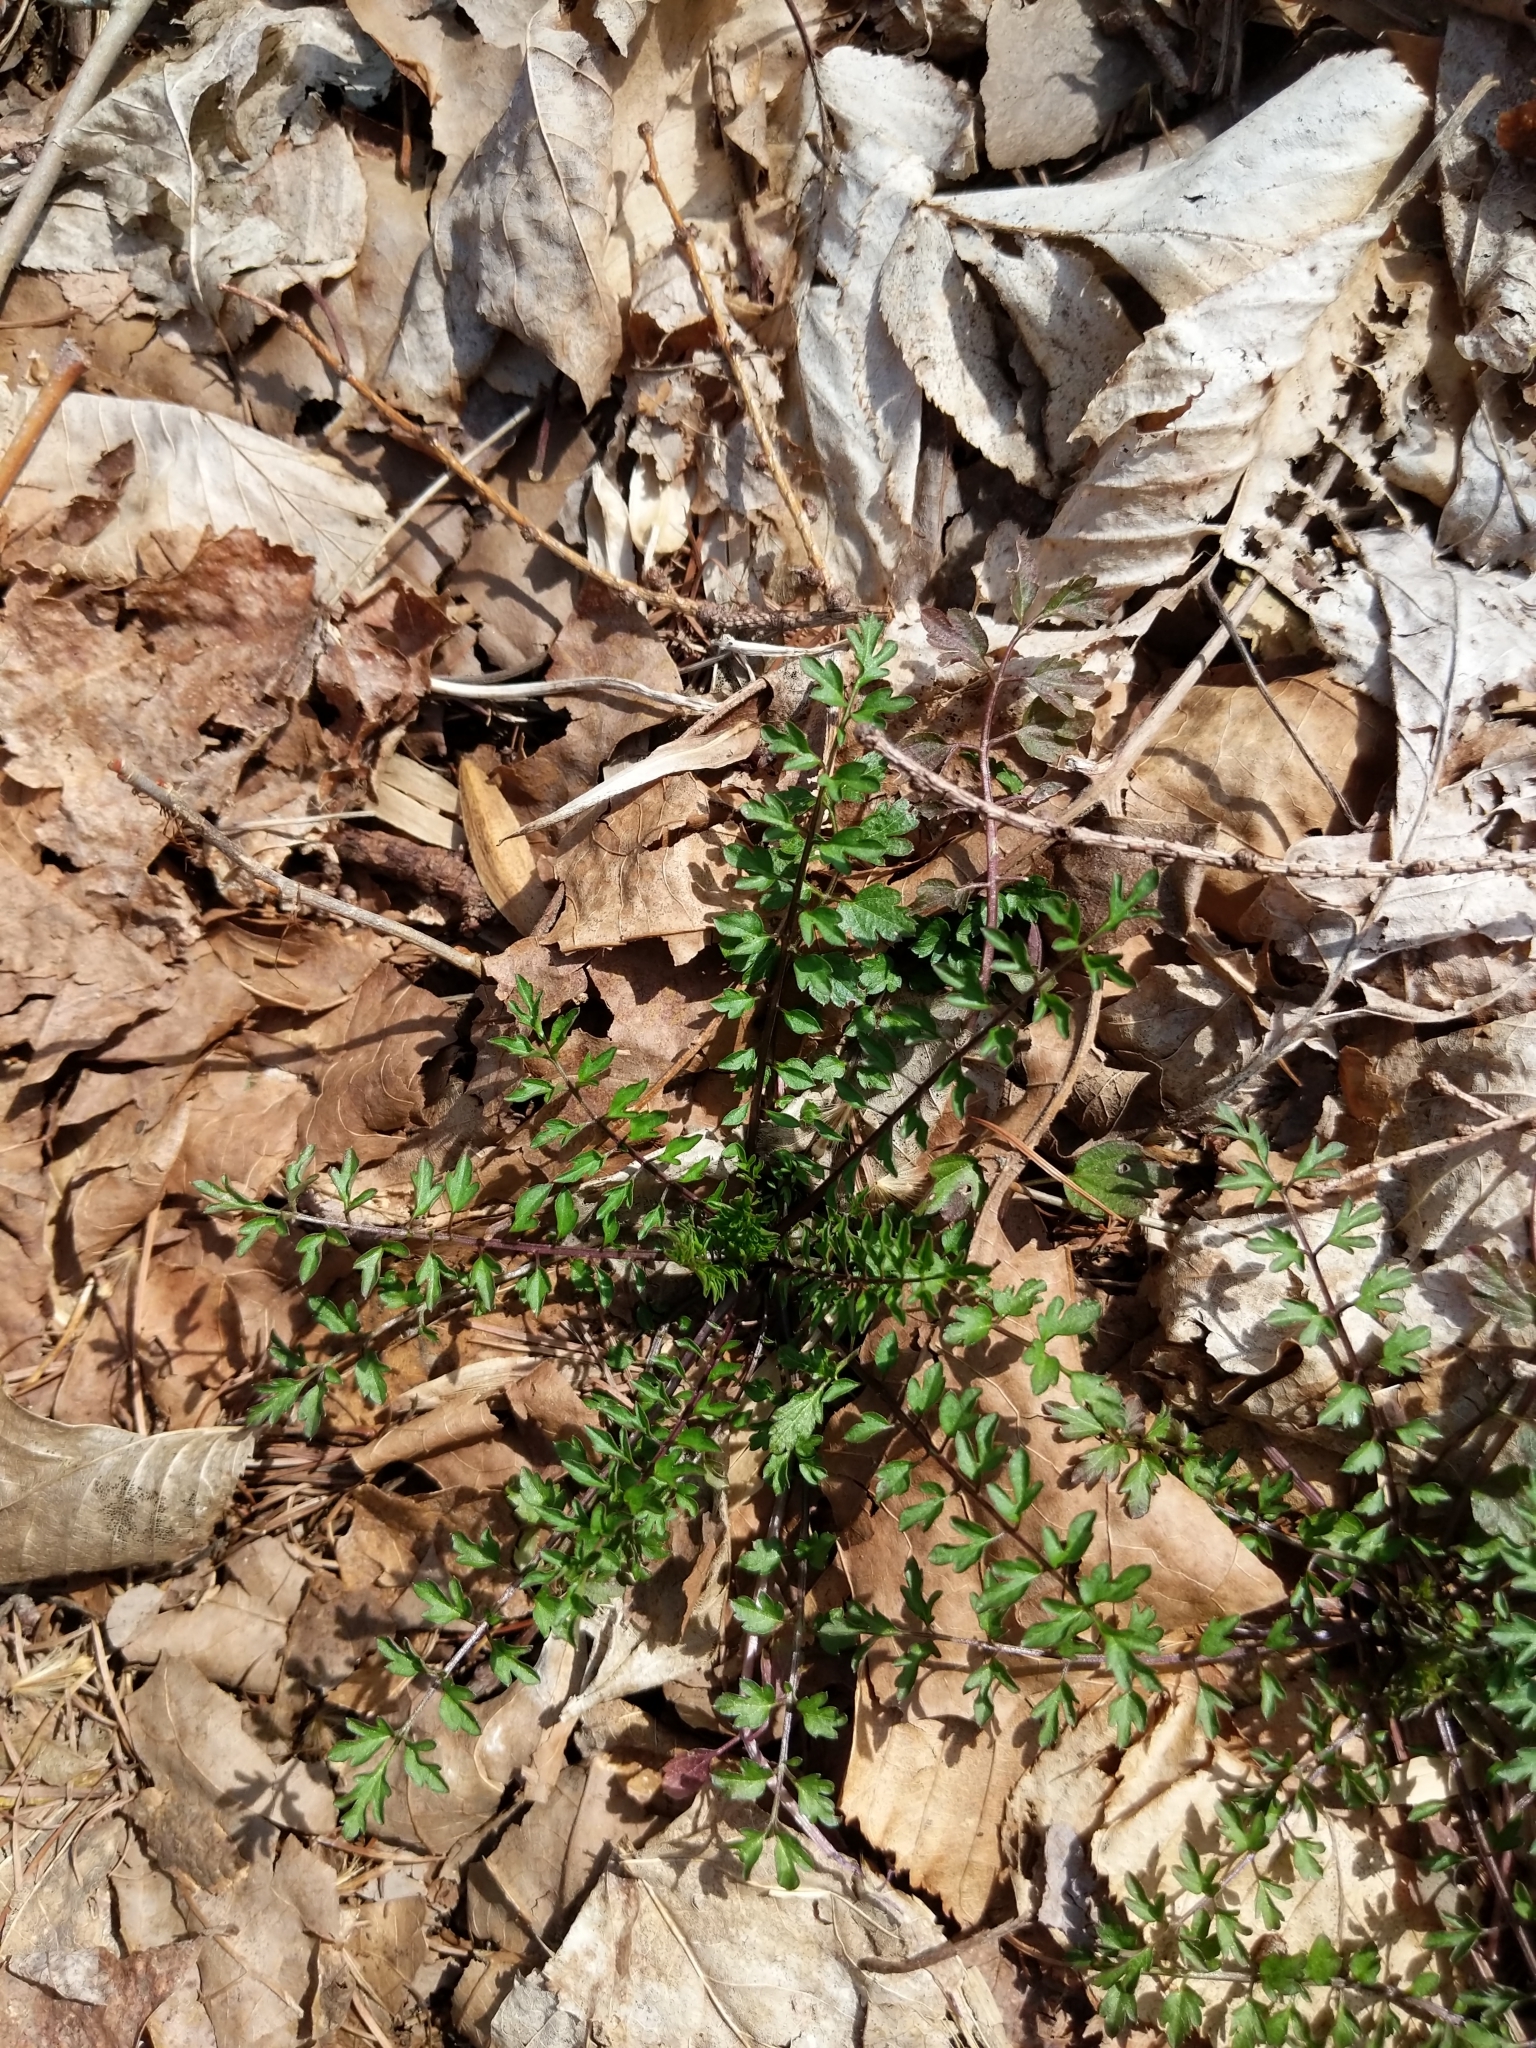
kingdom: Plantae
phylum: Tracheophyta
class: Magnoliopsida
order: Brassicales
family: Brassicaceae
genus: Cardamine
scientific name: Cardamine impatiens
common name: Narrow-leaved bitter-cress
